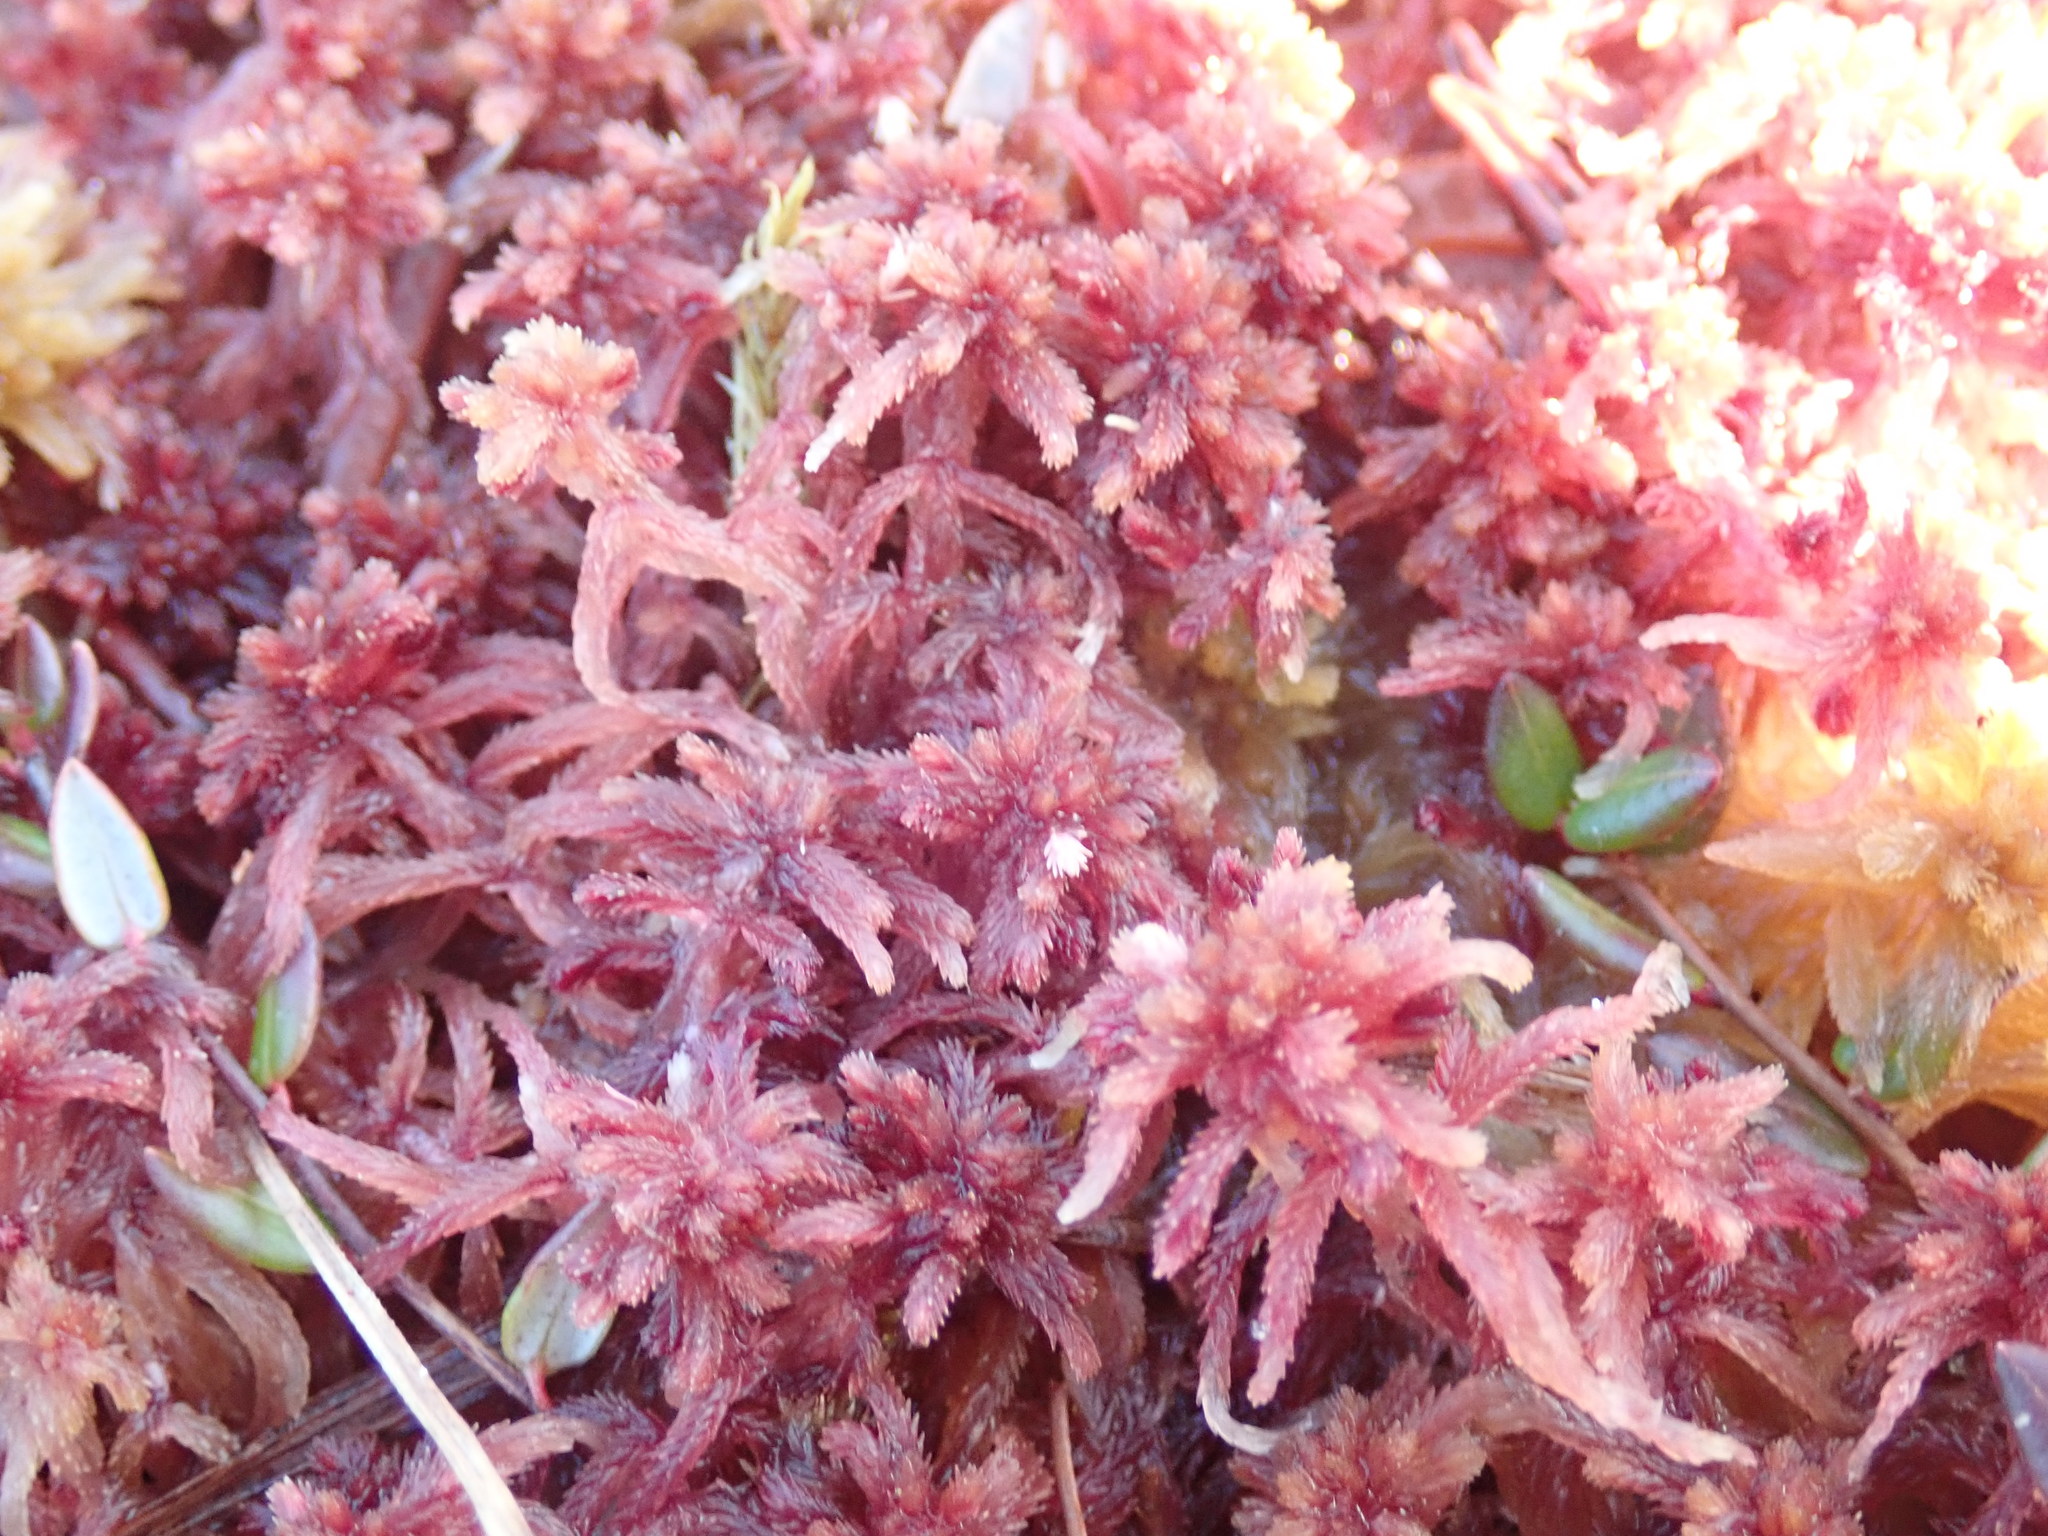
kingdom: Plantae
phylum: Bryophyta
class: Sphagnopsida
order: Sphagnales
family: Sphagnaceae
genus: Sphagnum
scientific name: Sphagnum rubellum
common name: Red peat moss
